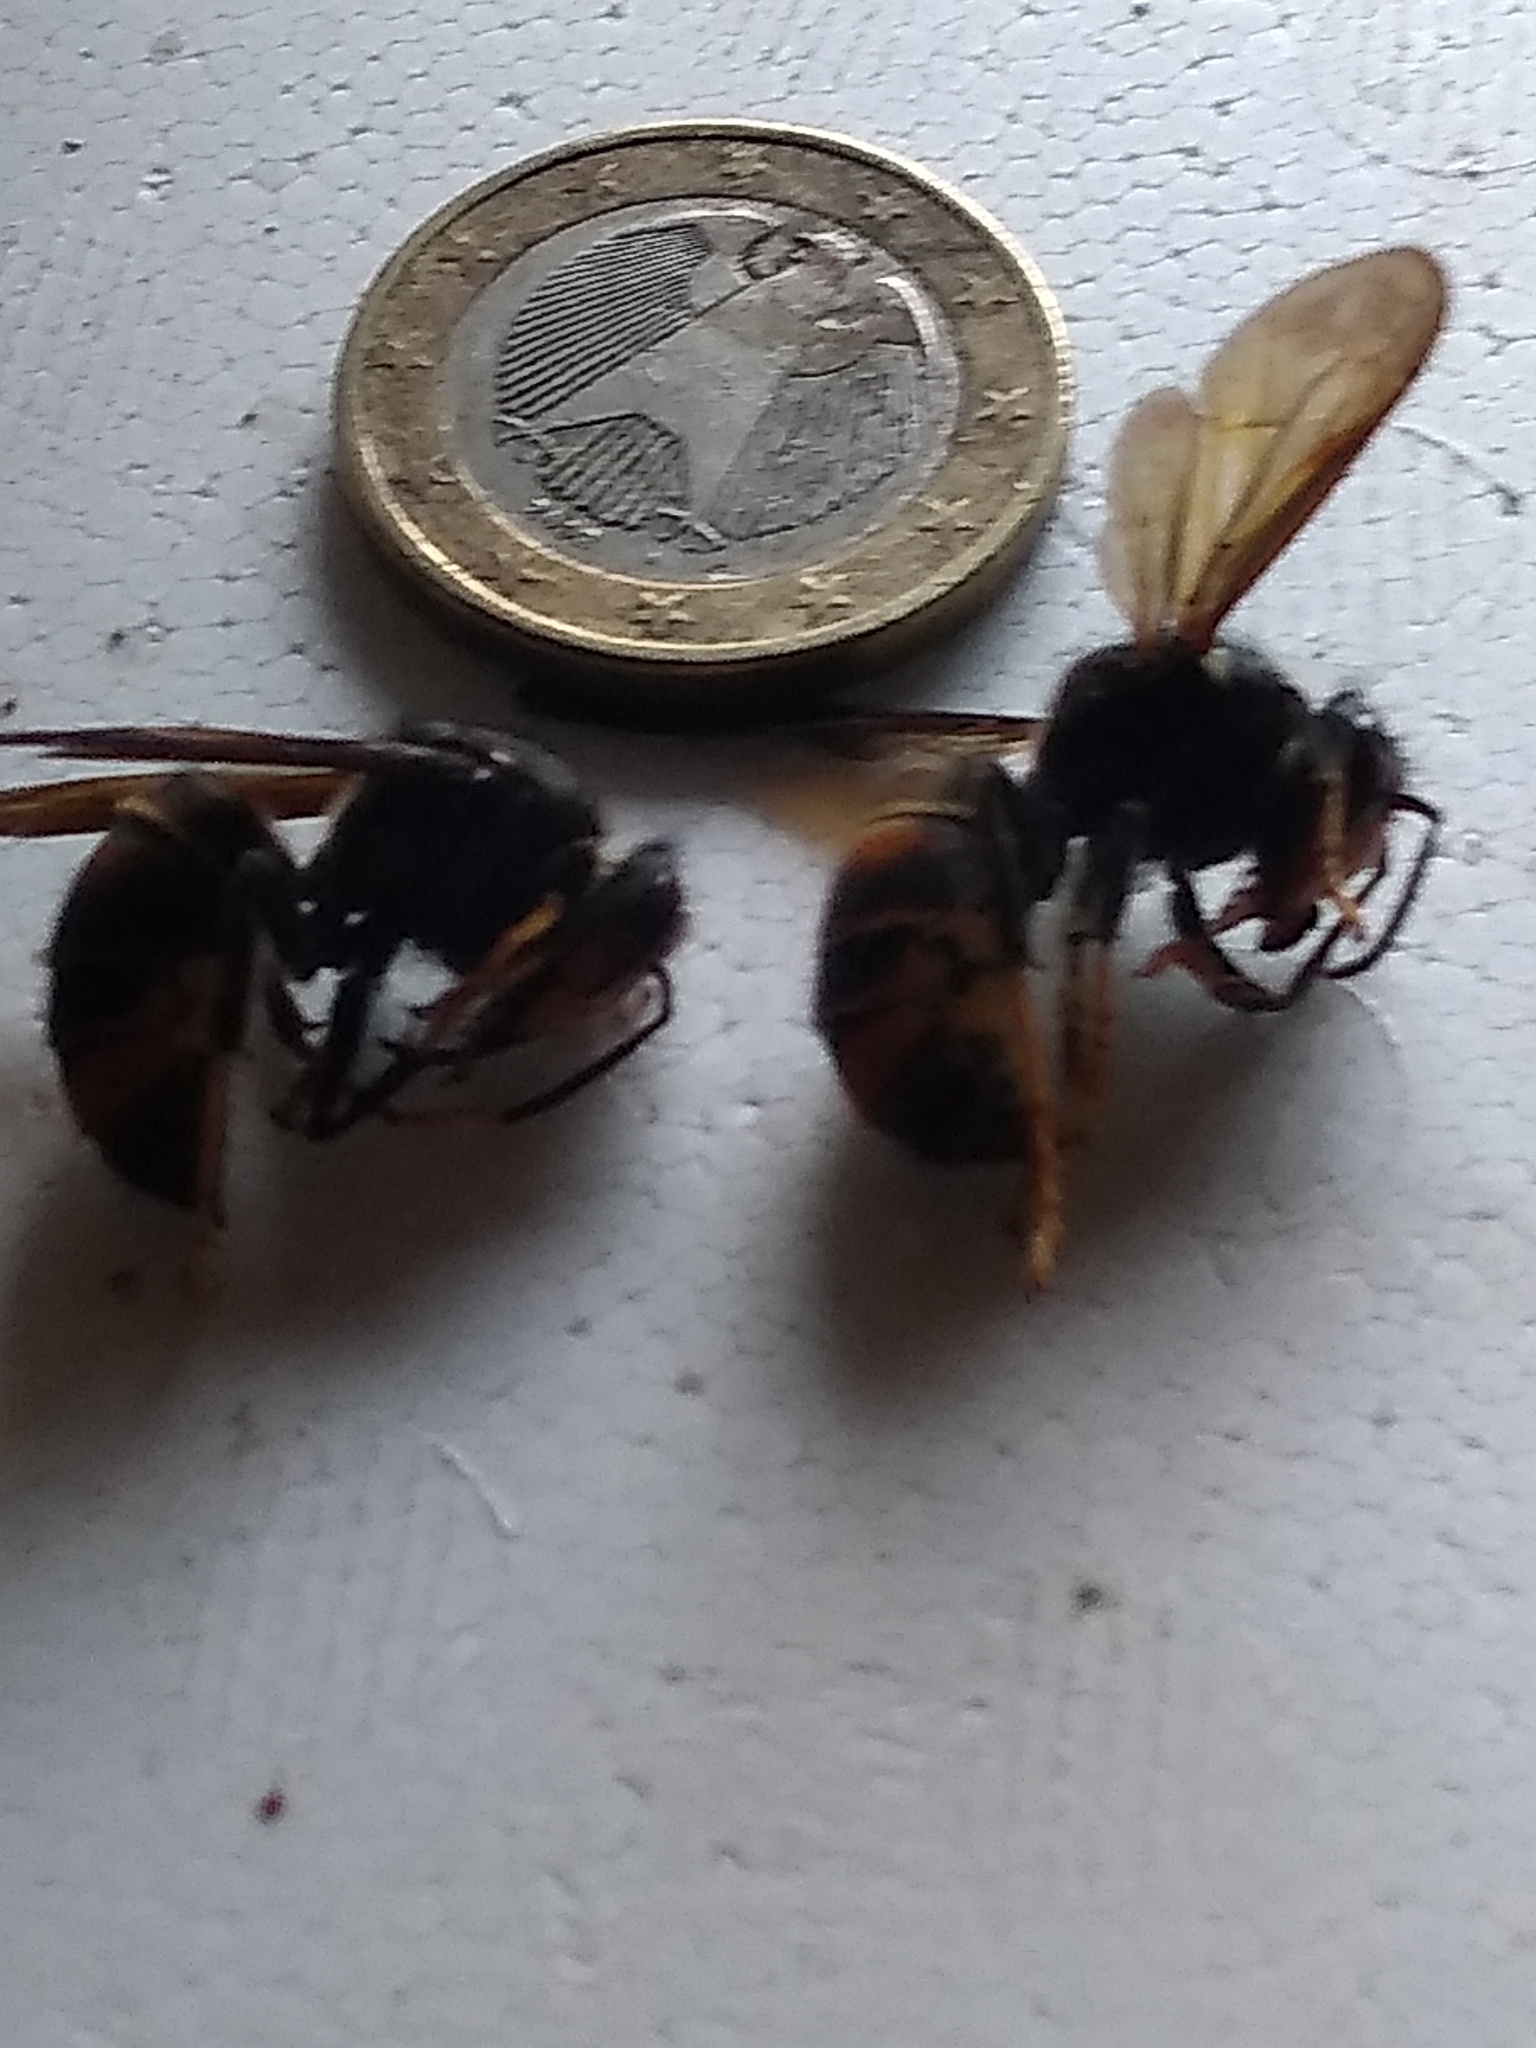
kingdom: Animalia
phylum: Arthropoda
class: Insecta
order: Hymenoptera
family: Vespidae
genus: Vespa
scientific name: Vespa velutina
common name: Asian hornet
